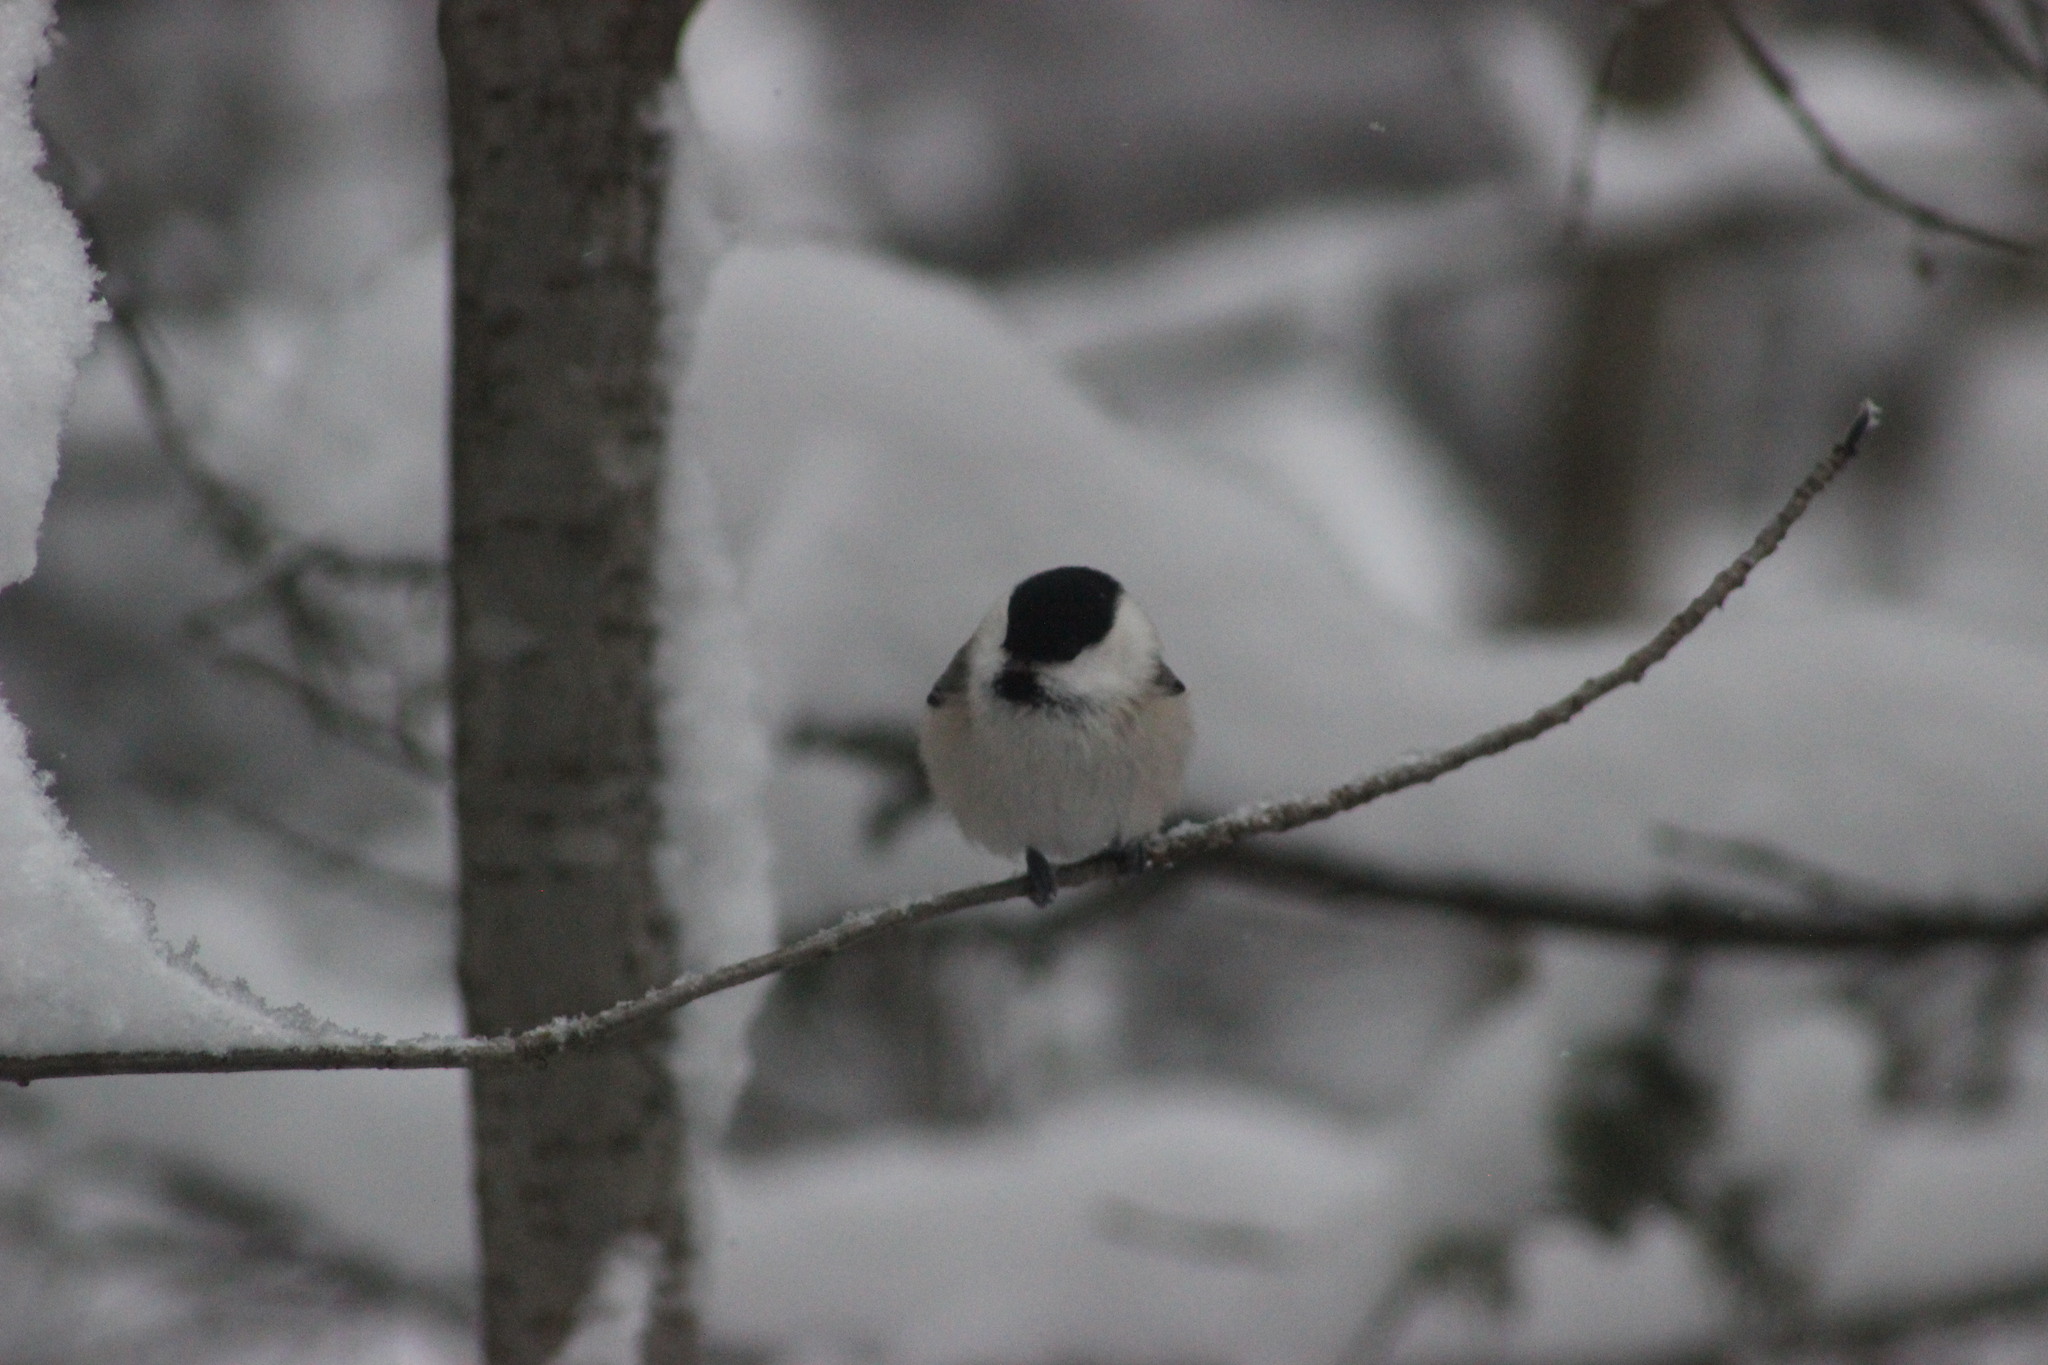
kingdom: Animalia
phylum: Chordata
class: Aves
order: Passeriformes
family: Paridae
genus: Poecile
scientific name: Poecile montanus
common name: Willow tit
